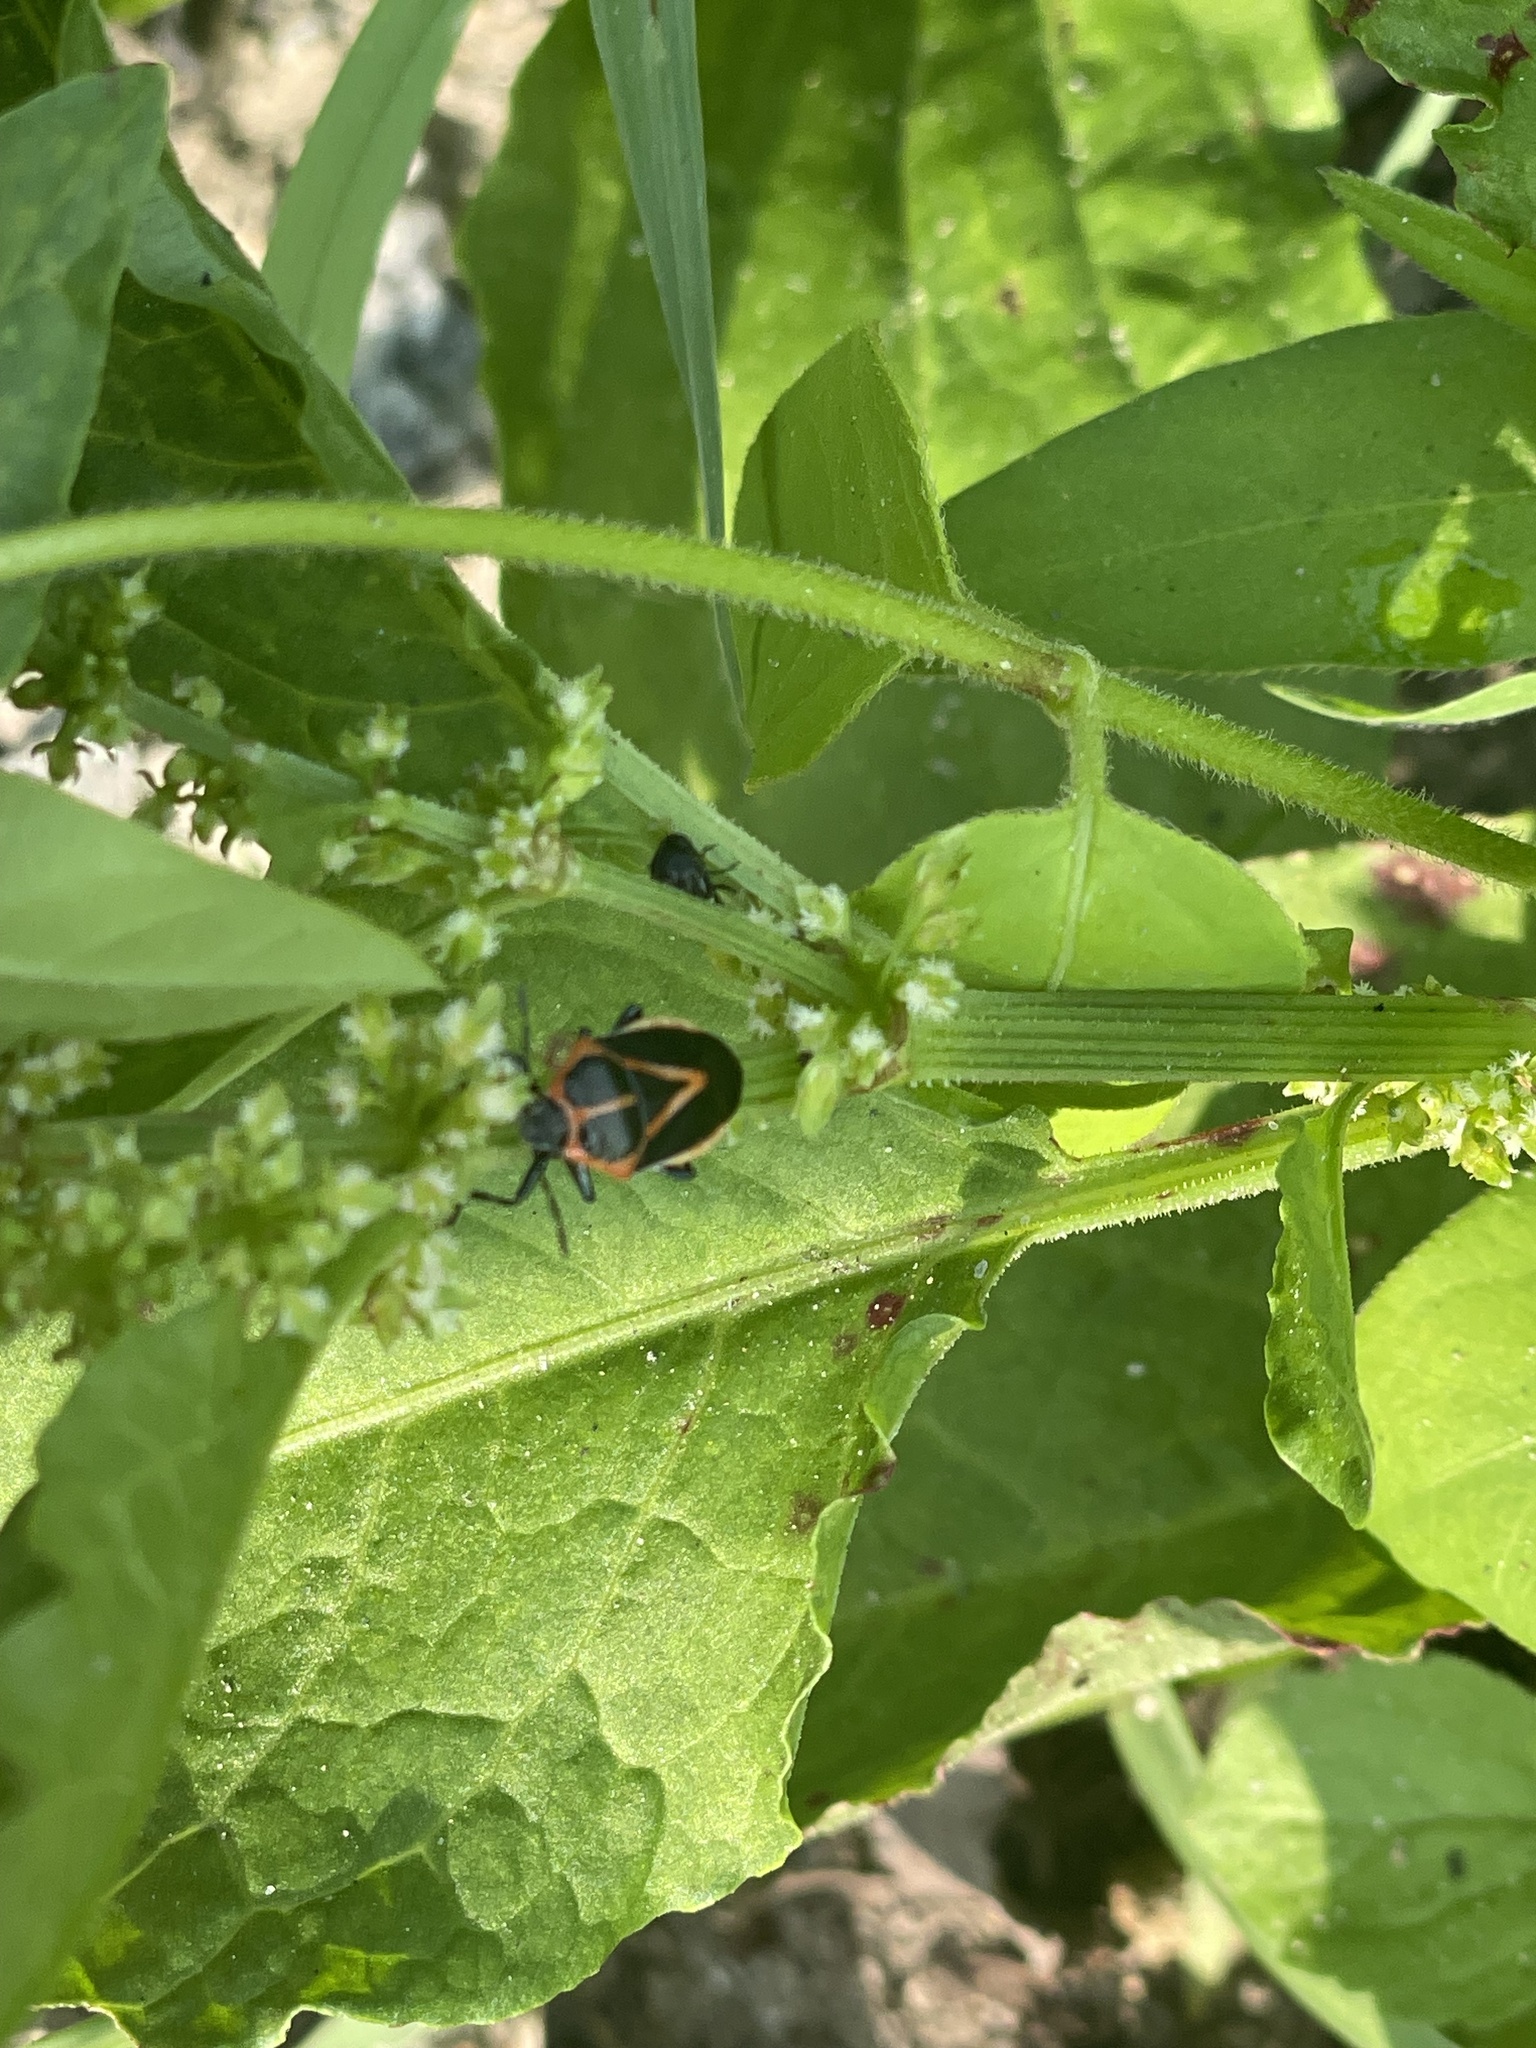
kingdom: Animalia
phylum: Arthropoda
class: Insecta
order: Hemiptera
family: Pentatomidae
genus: Perillus
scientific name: Perillus strigipes
